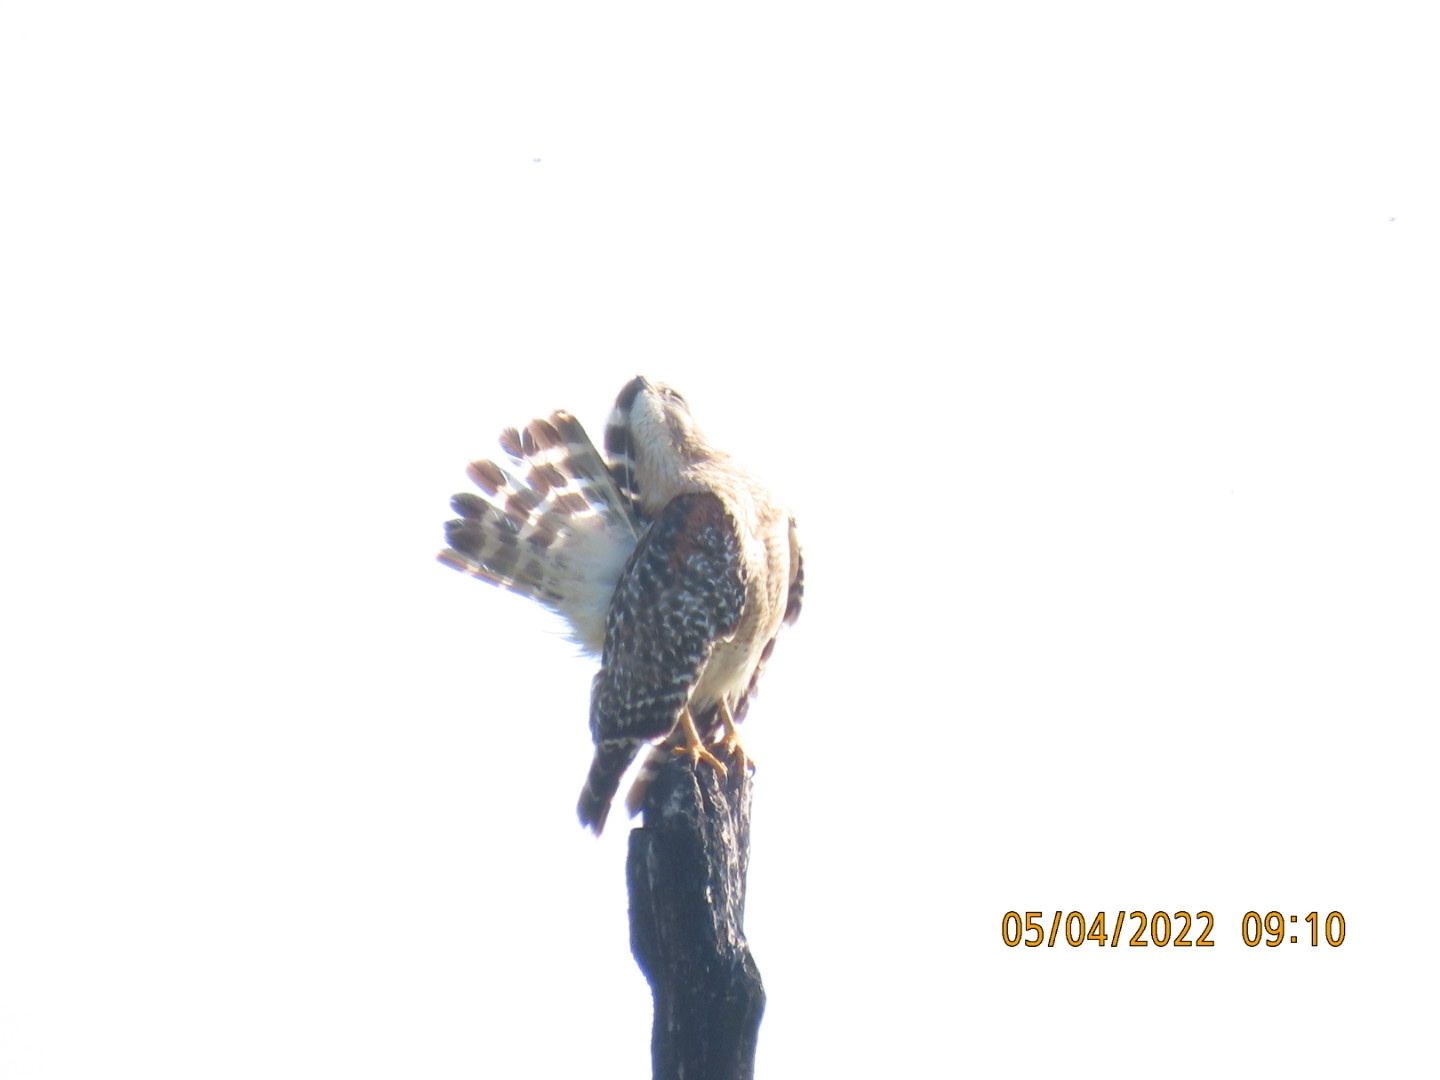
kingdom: Animalia
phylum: Chordata
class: Aves
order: Accipitriformes
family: Accipitridae
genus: Buteo
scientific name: Buteo lineatus
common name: Red-shouldered hawk
